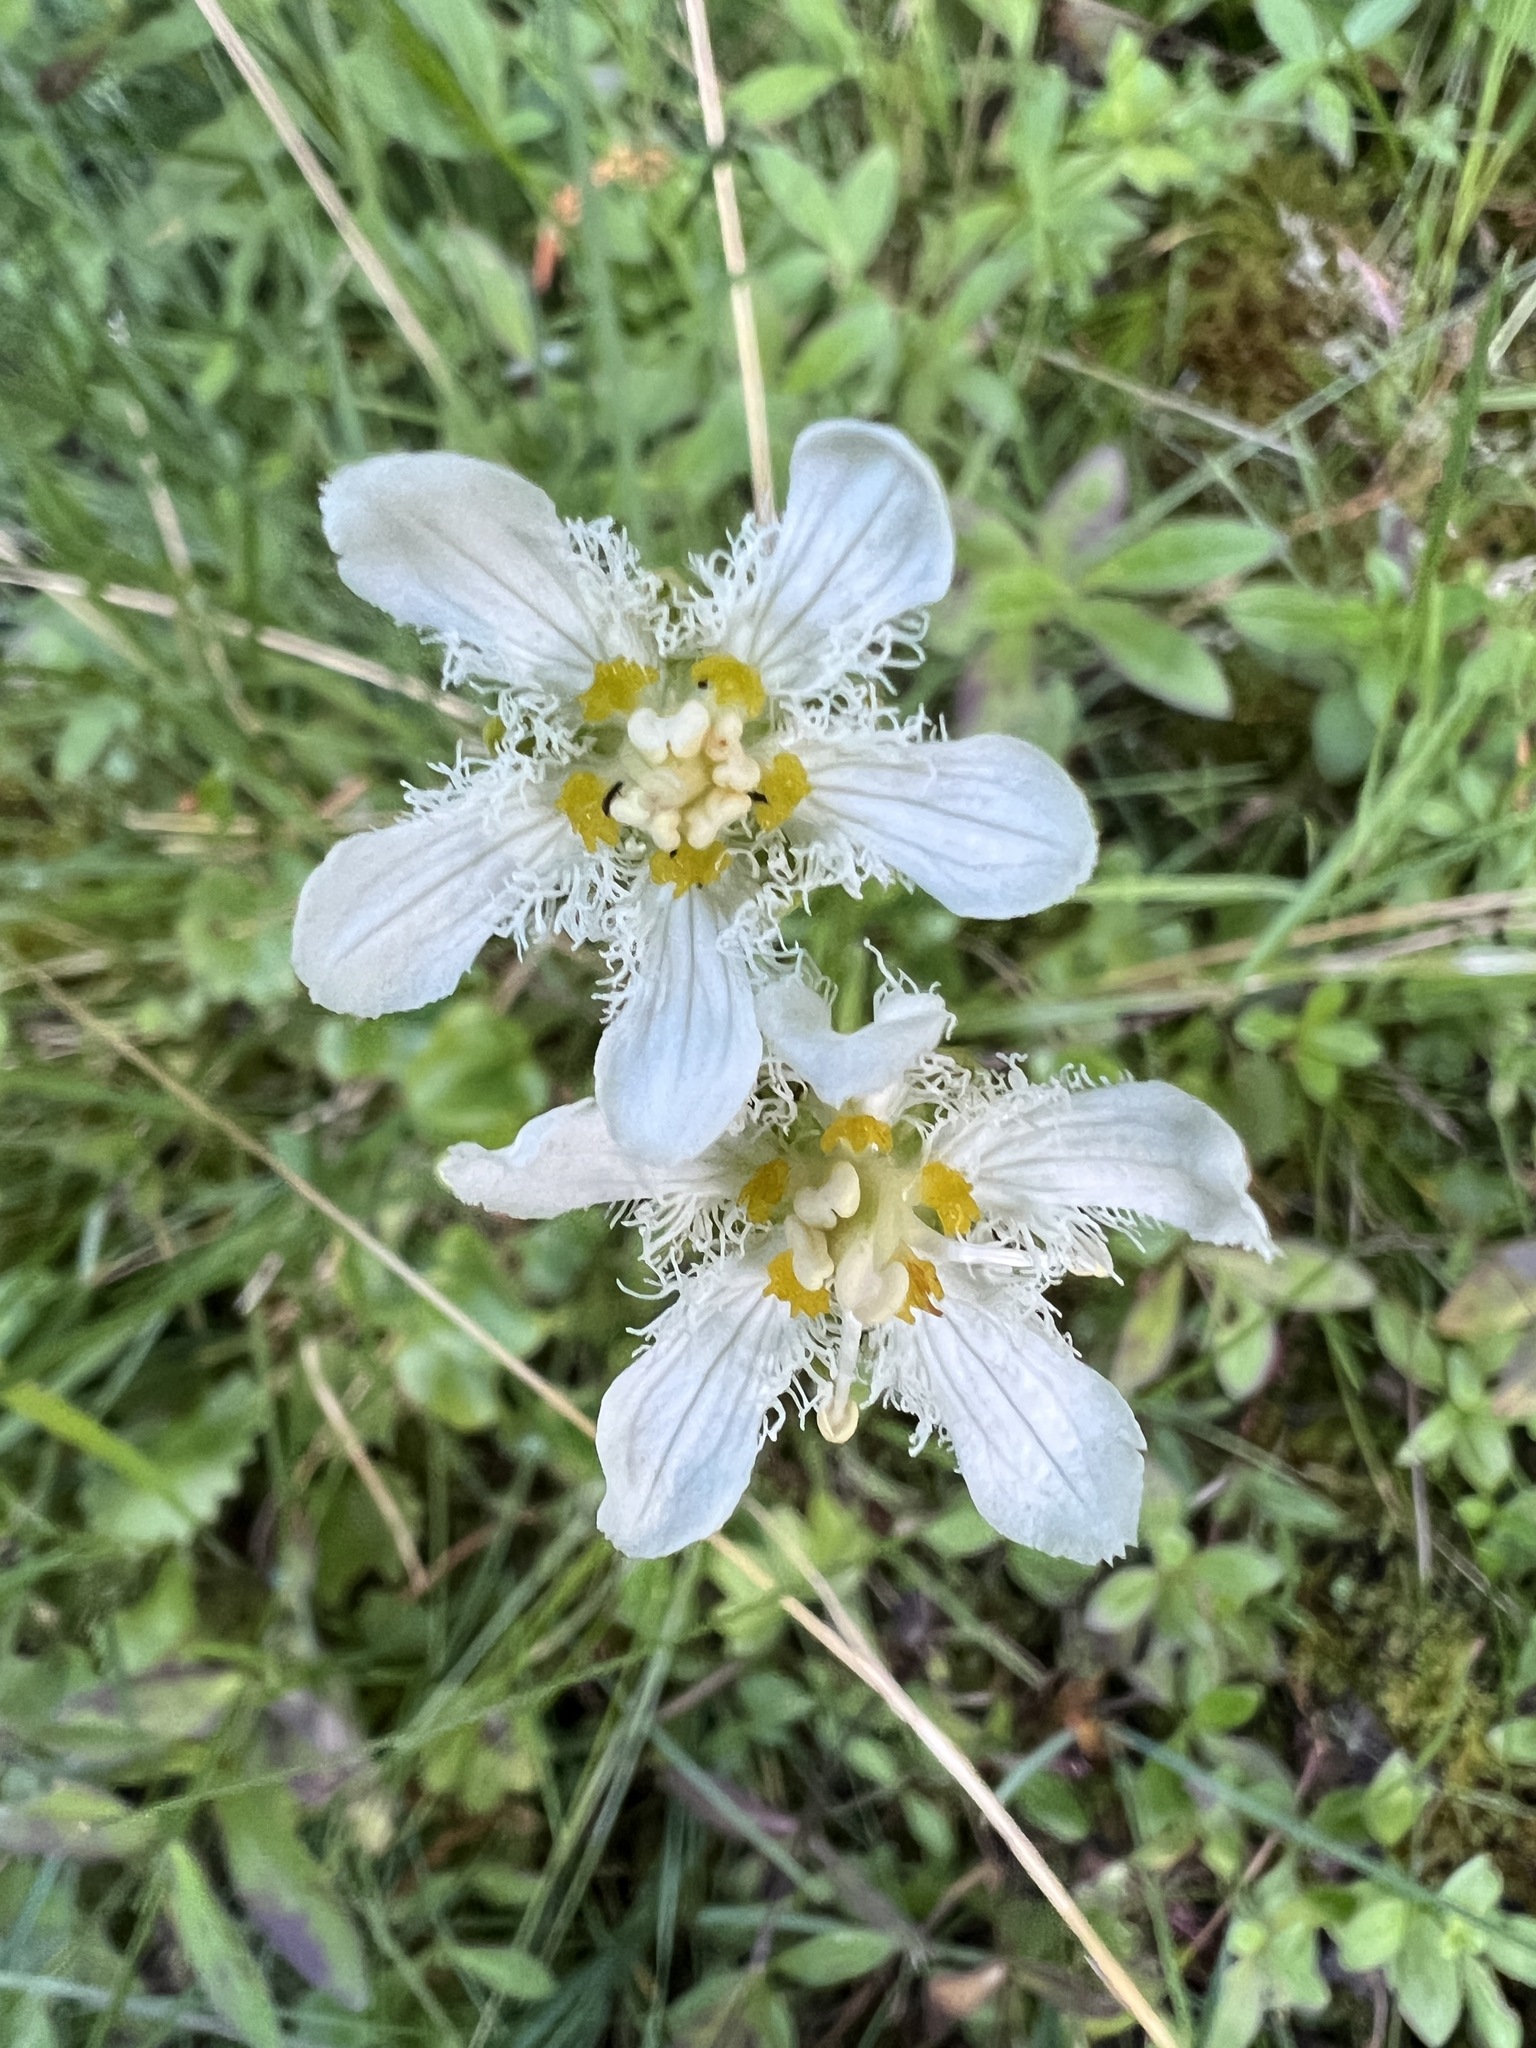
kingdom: Plantae
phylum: Tracheophyta
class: Magnoliopsida
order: Celastrales
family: Parnassiaceae
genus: Parnassia
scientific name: Parnassia fimbriata
